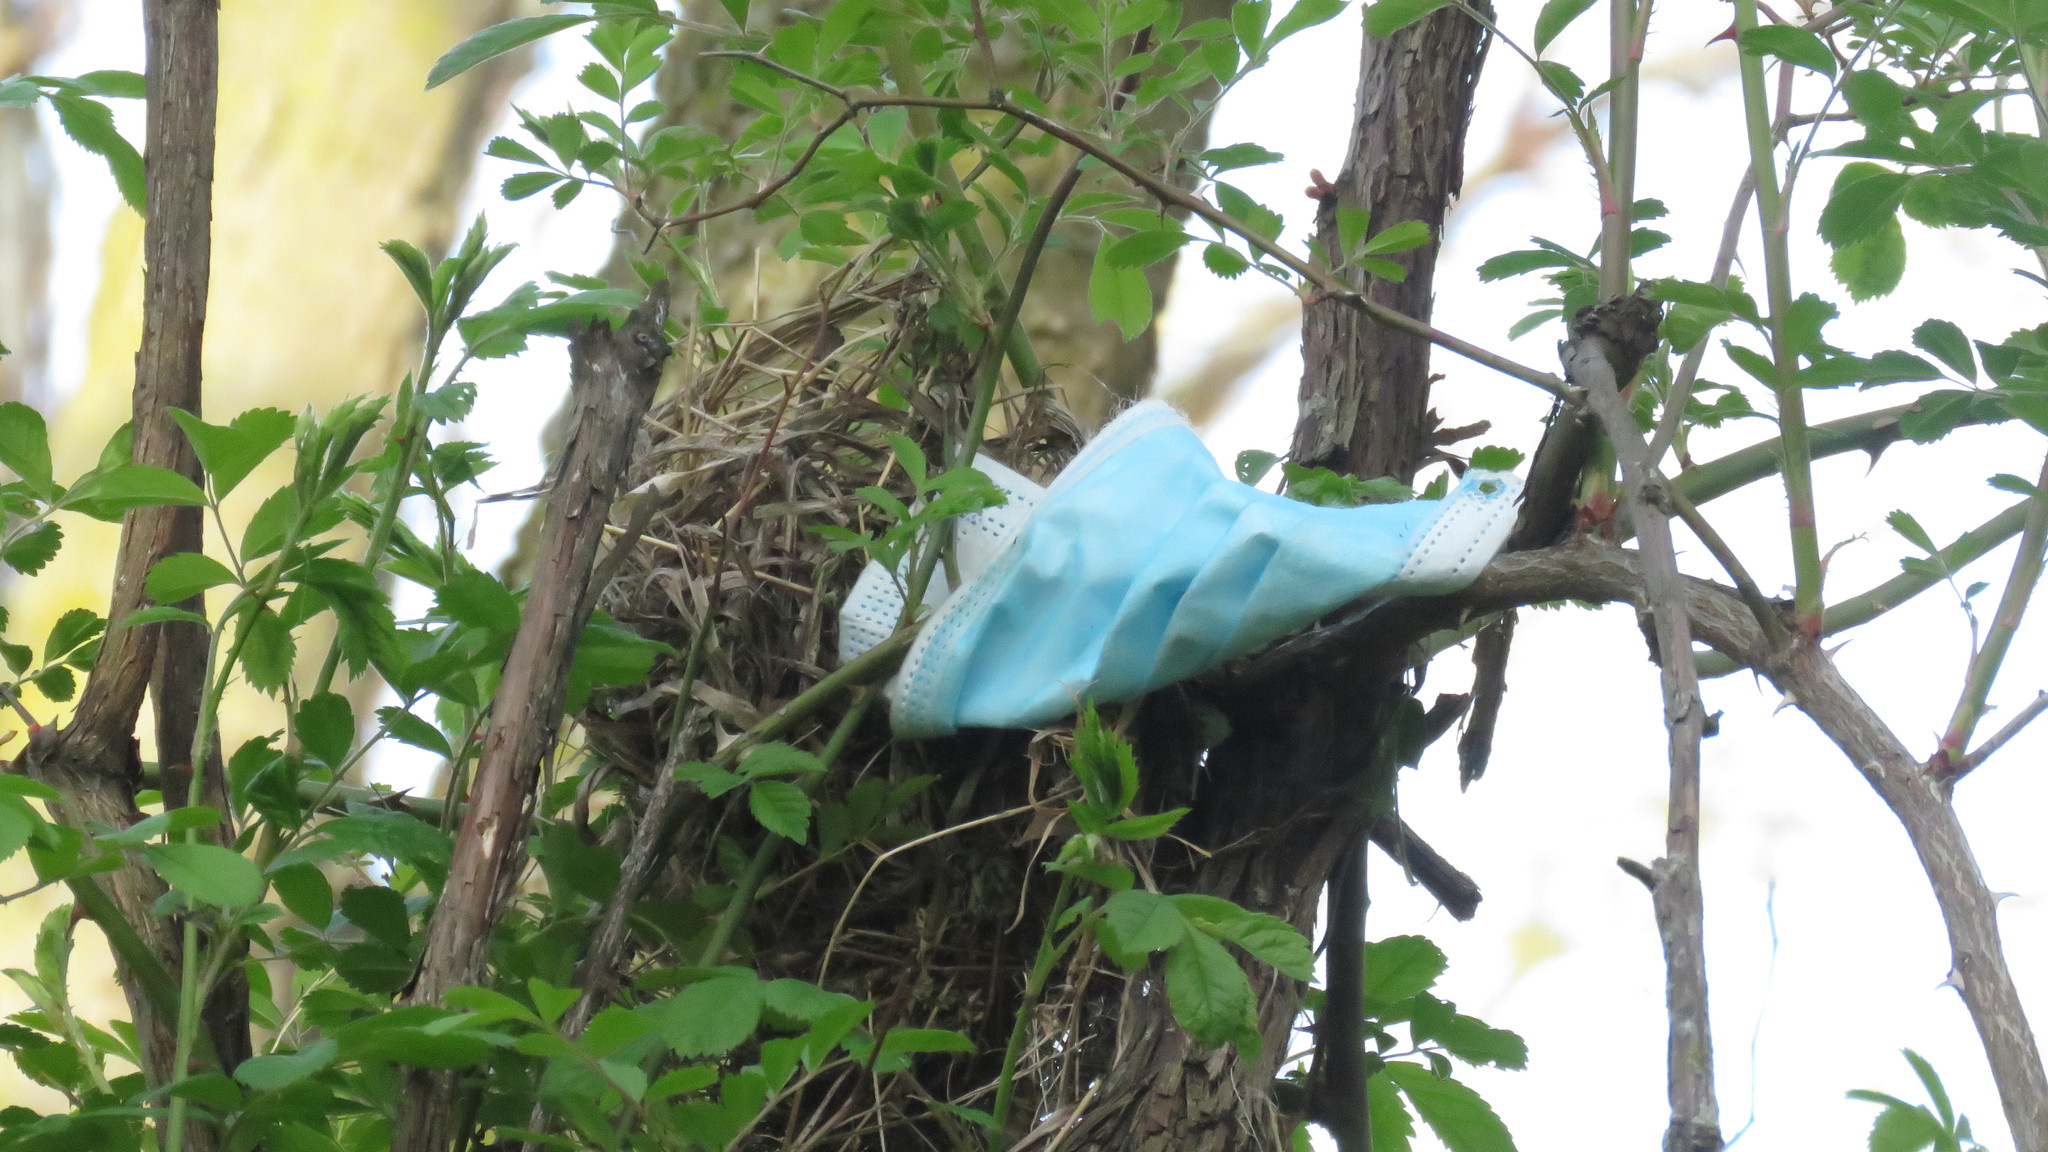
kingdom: Animalia
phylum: Chordata
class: Aves
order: Passeriformes
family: Icteridae
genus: Agelaius
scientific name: Agelaius phoeniceus
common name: Red-winged blackbird
